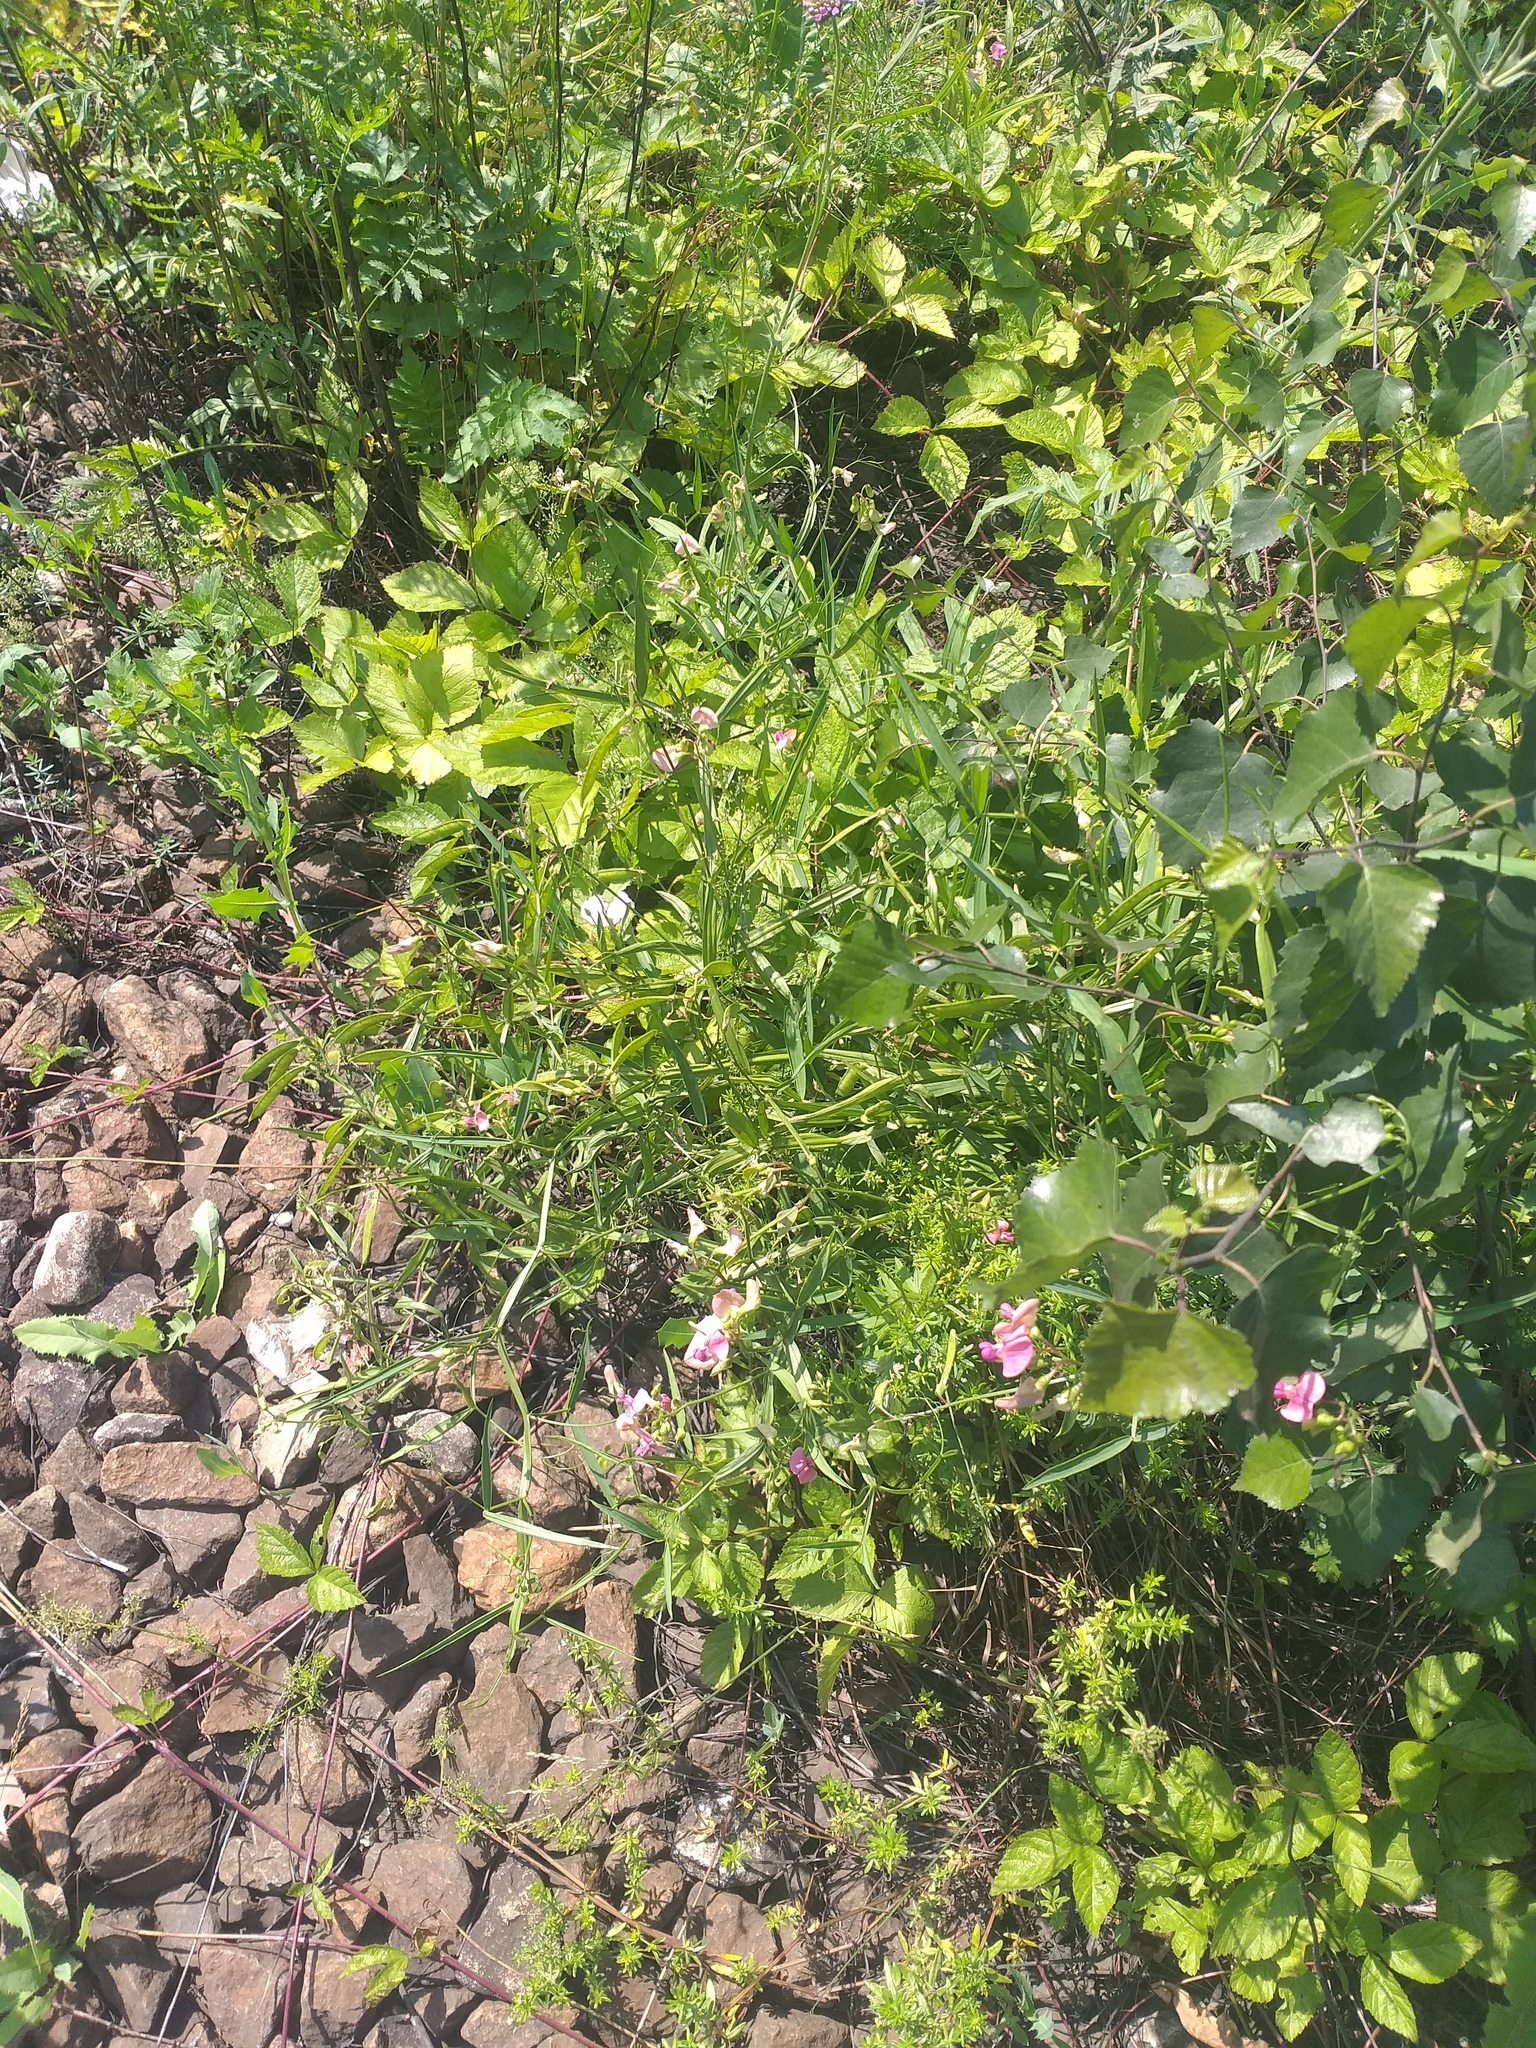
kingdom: Plantae
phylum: Tracheophyta
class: Magnoliopsida
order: Fabales
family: Fabaceae
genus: Lathyrus
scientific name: Lathyrus sylvestris
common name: Flat pea
